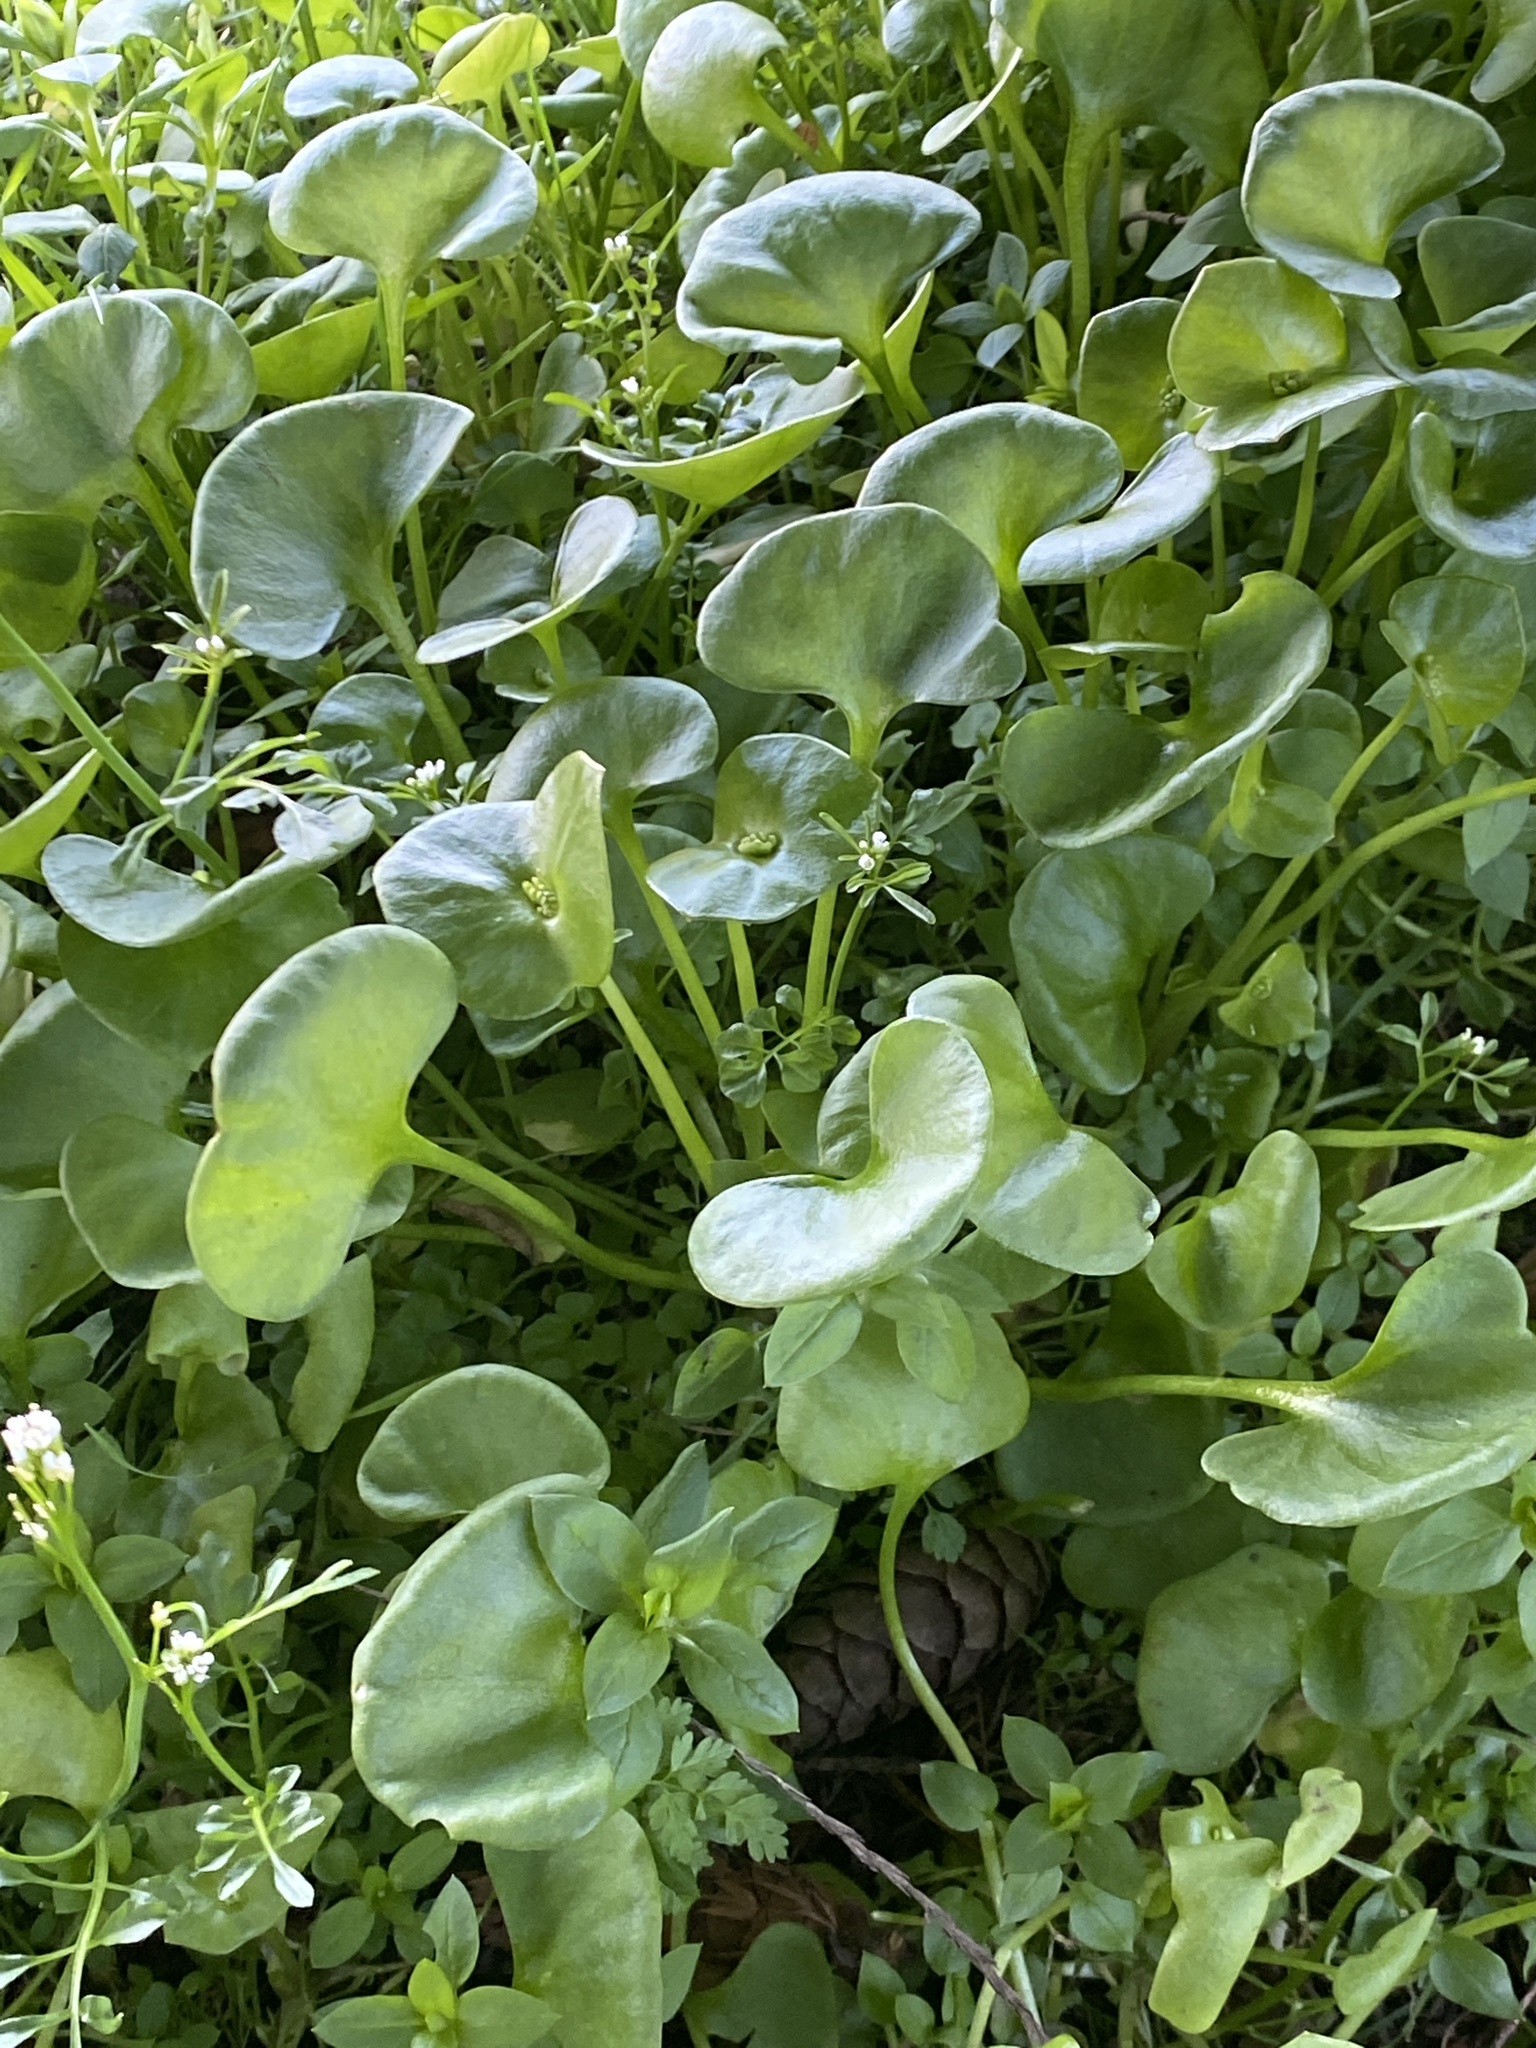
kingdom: Plantae
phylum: Tracheophyta
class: Magnoliopsida
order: Caryophyllales
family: Montiaceae
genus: Claytonia
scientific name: Claytonia perfoliata
